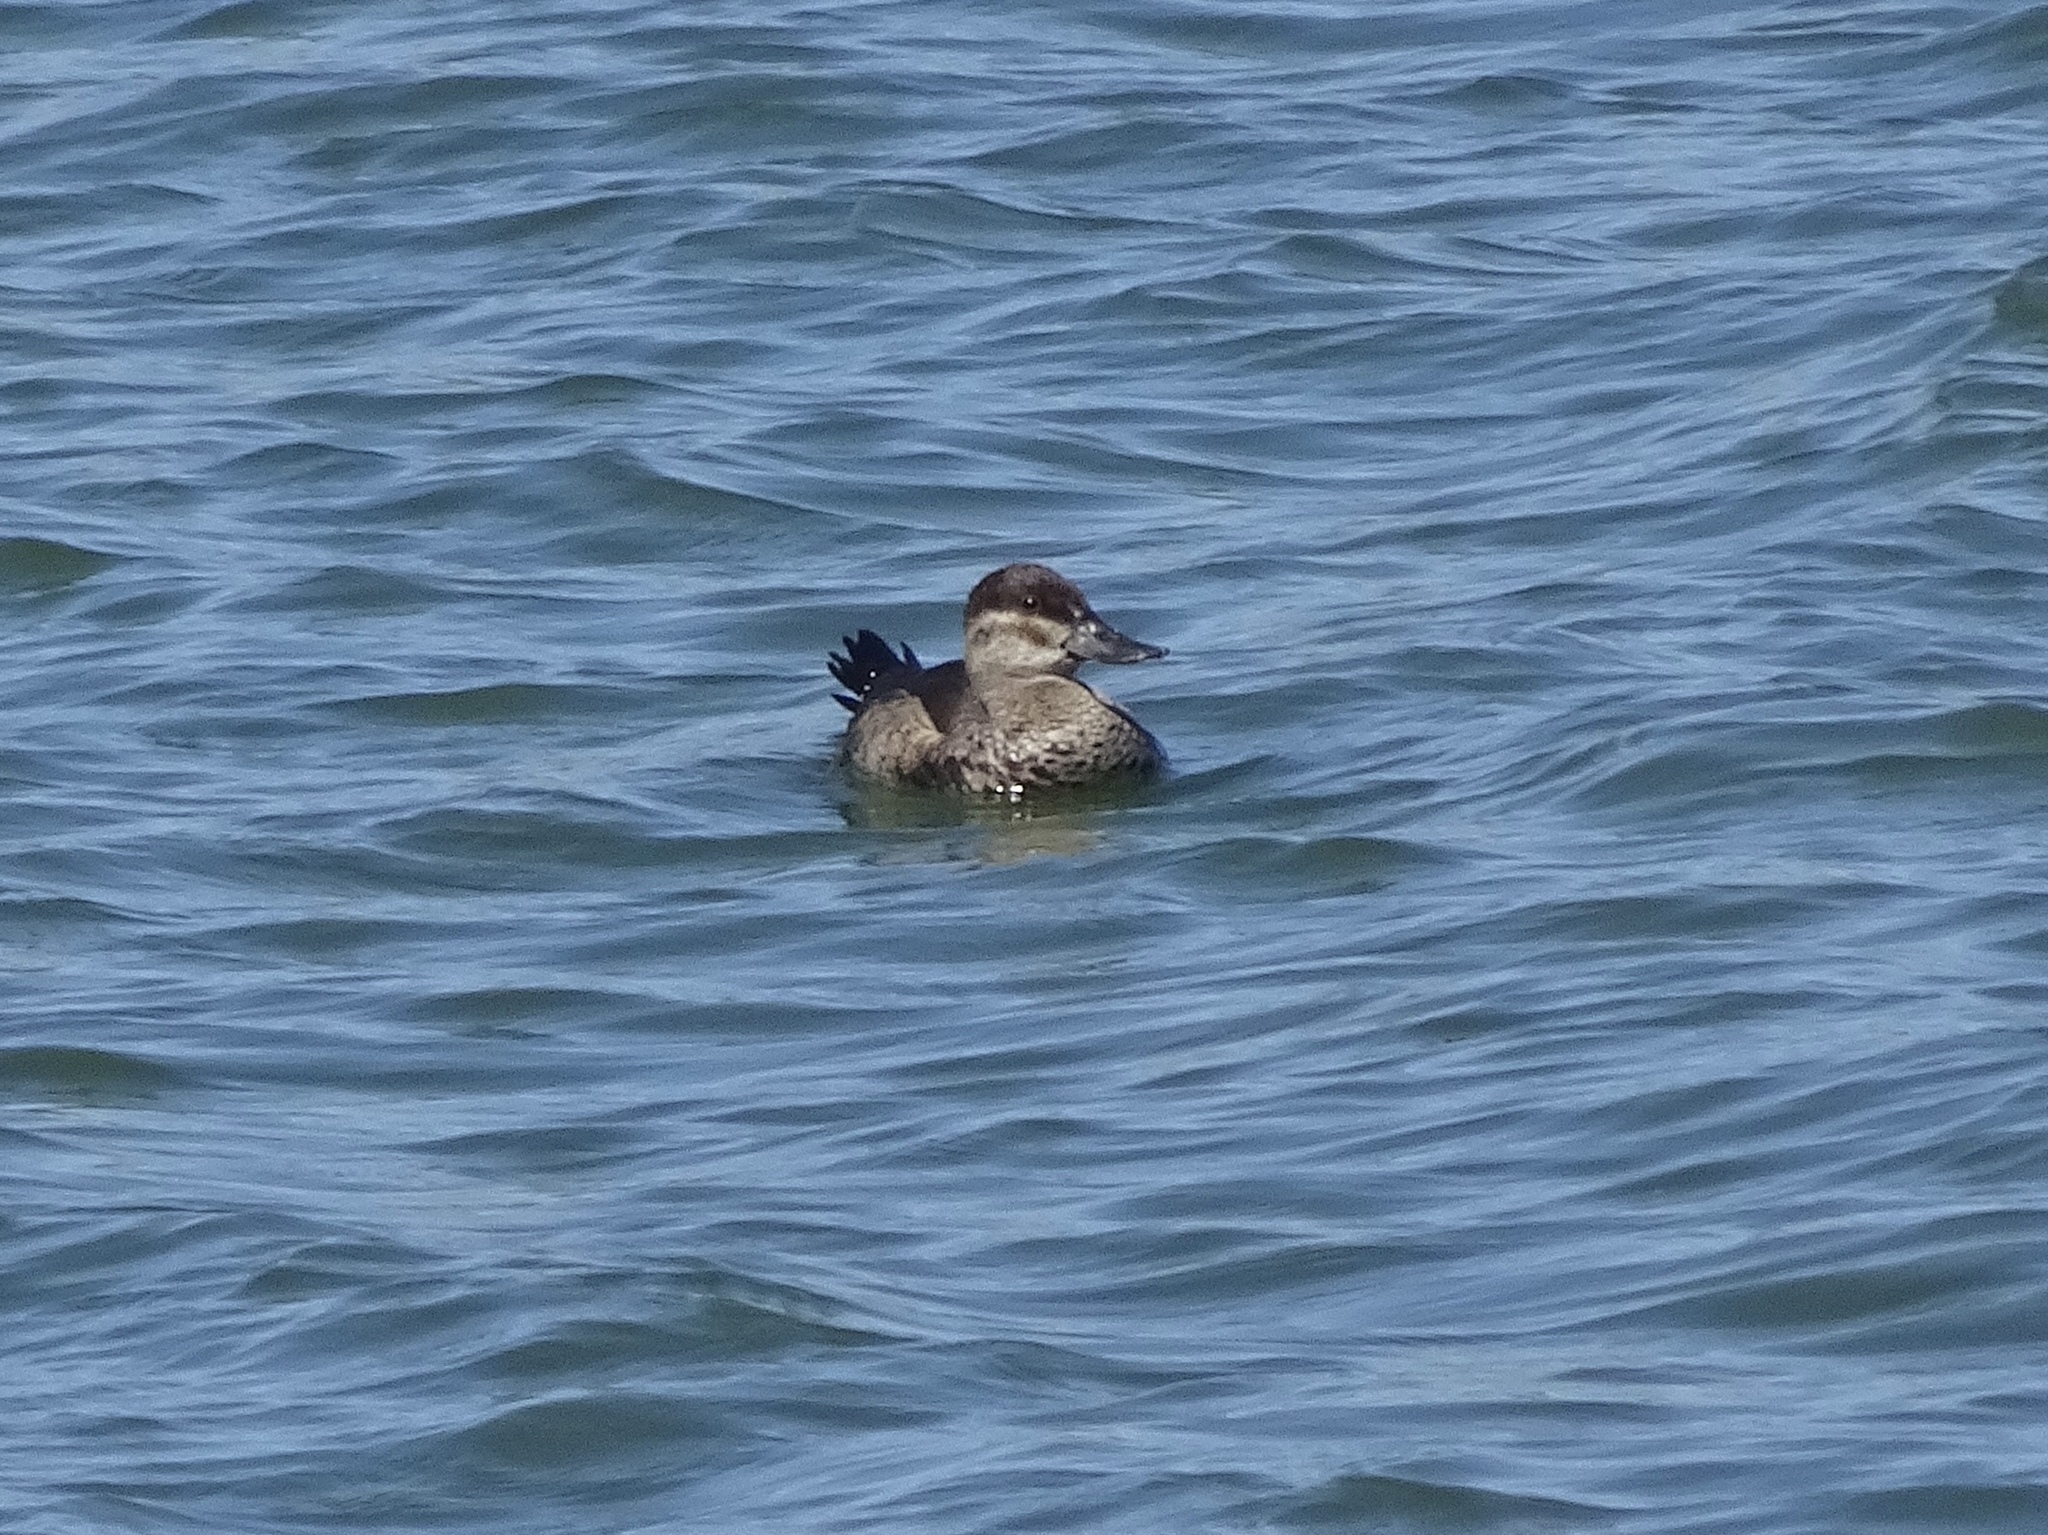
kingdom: Animalia
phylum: Chordata
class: Aves
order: Anseriformes
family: Anatidae
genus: Oxyura
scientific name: Oxyura jamaicensis
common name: Ruddy duck
